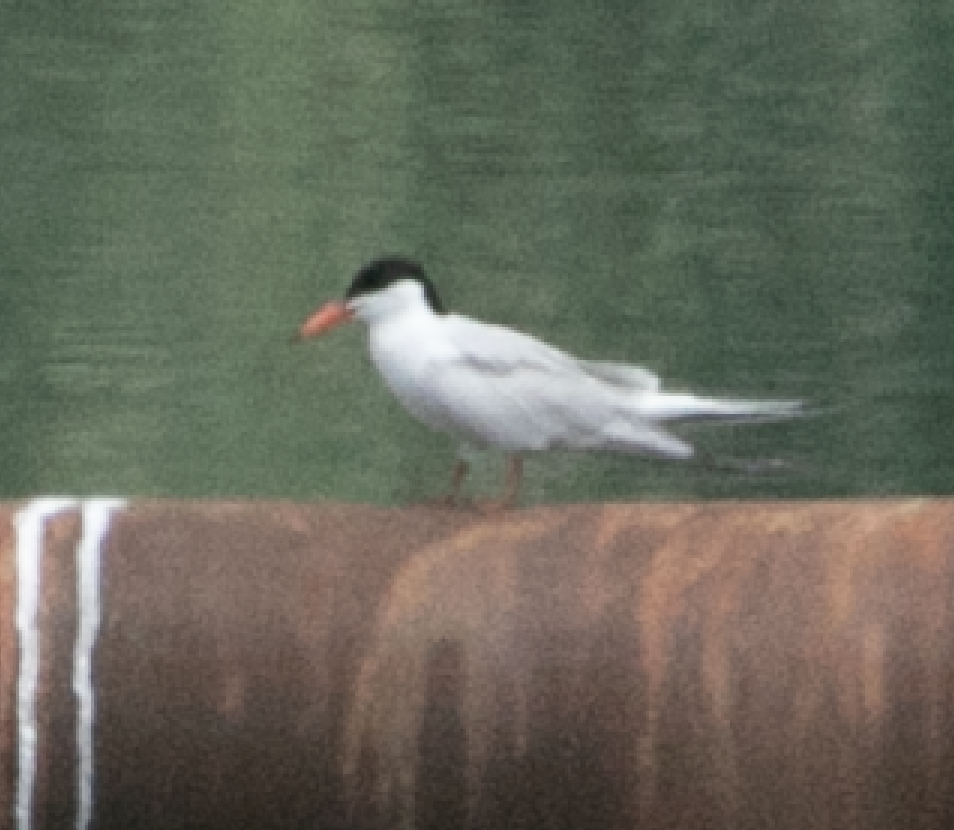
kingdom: Animalia
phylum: Chordata
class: Aves
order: Charadriiformes
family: Laridae
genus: Sterna
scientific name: Sterna hirundo
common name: Common tern
